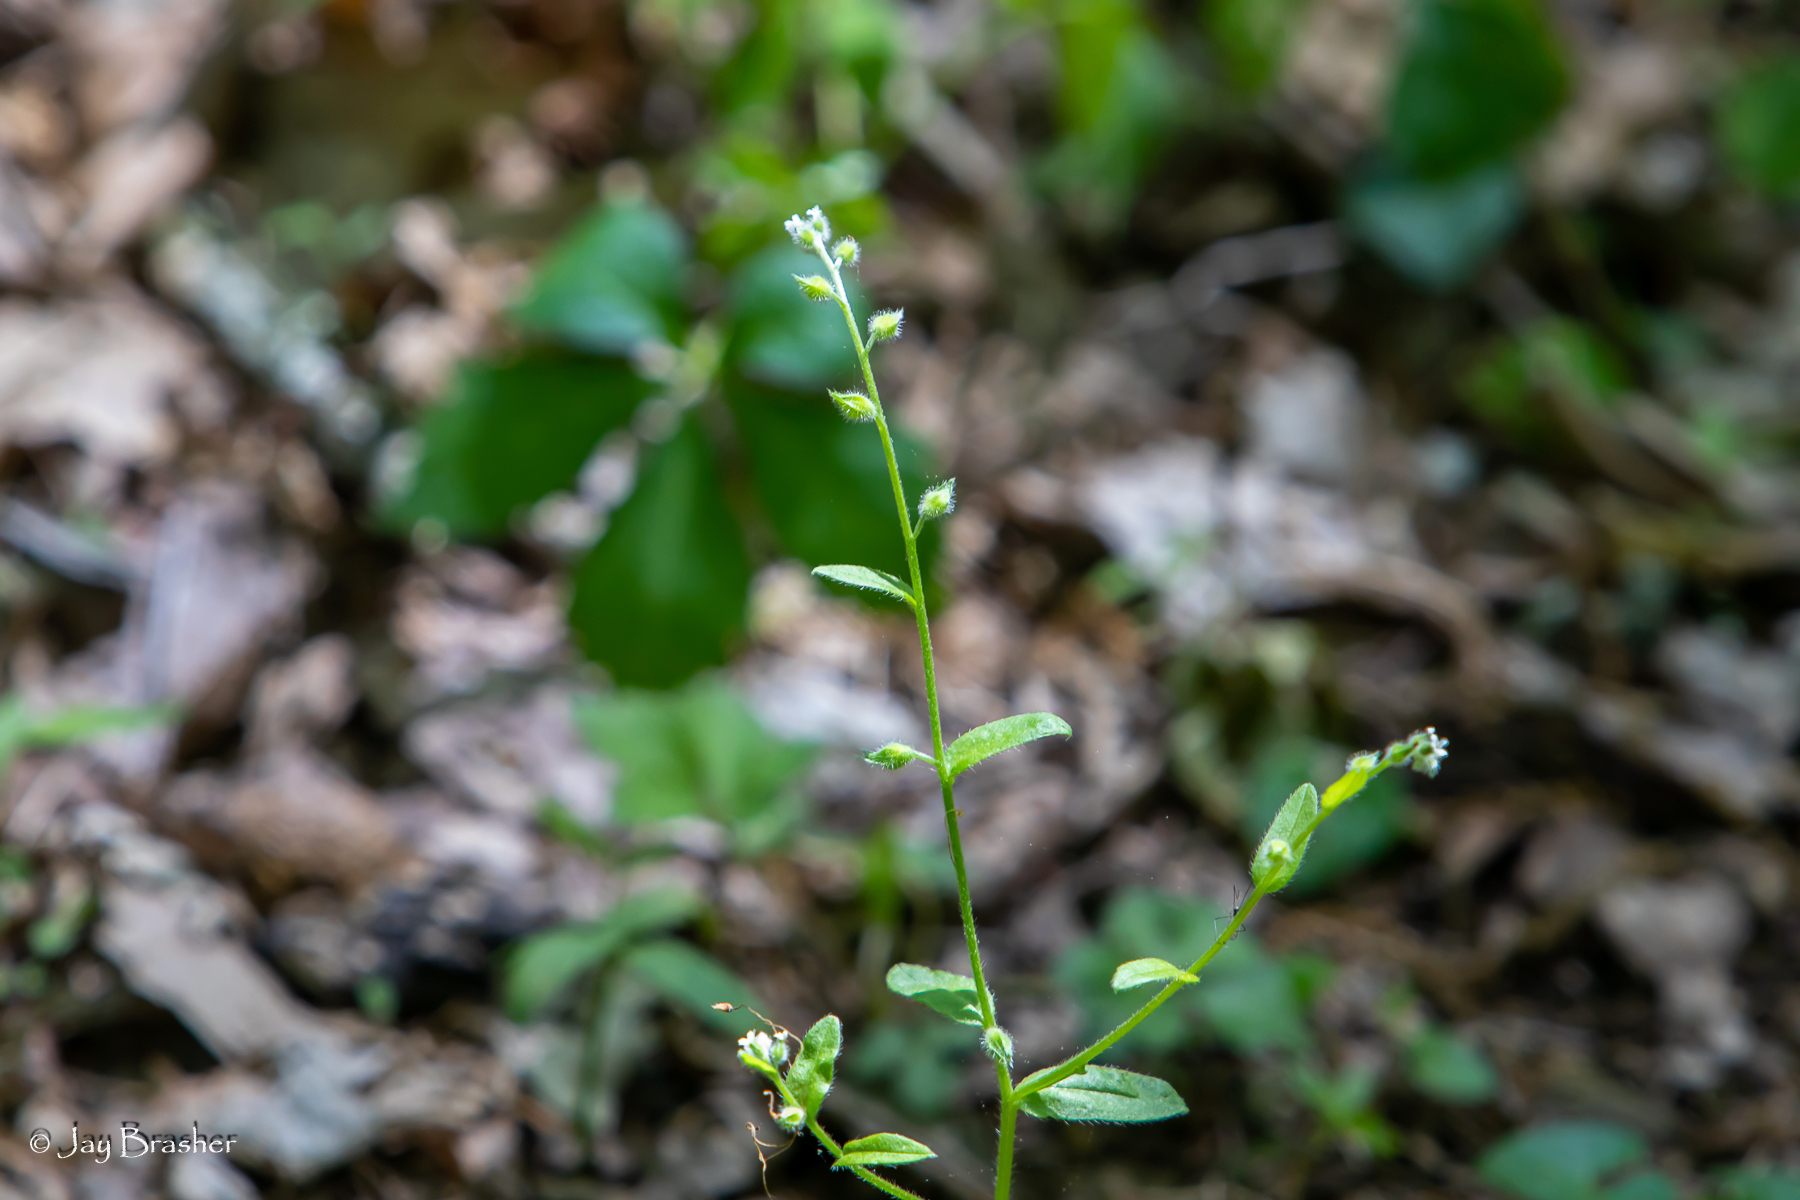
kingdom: Plantae
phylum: Tracheophyta
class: Magnoliopsida
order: Boraginales
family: Boraginaceae
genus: Myosotis
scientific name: Myosotis macrosperma
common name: Large-seed forget-me-not
